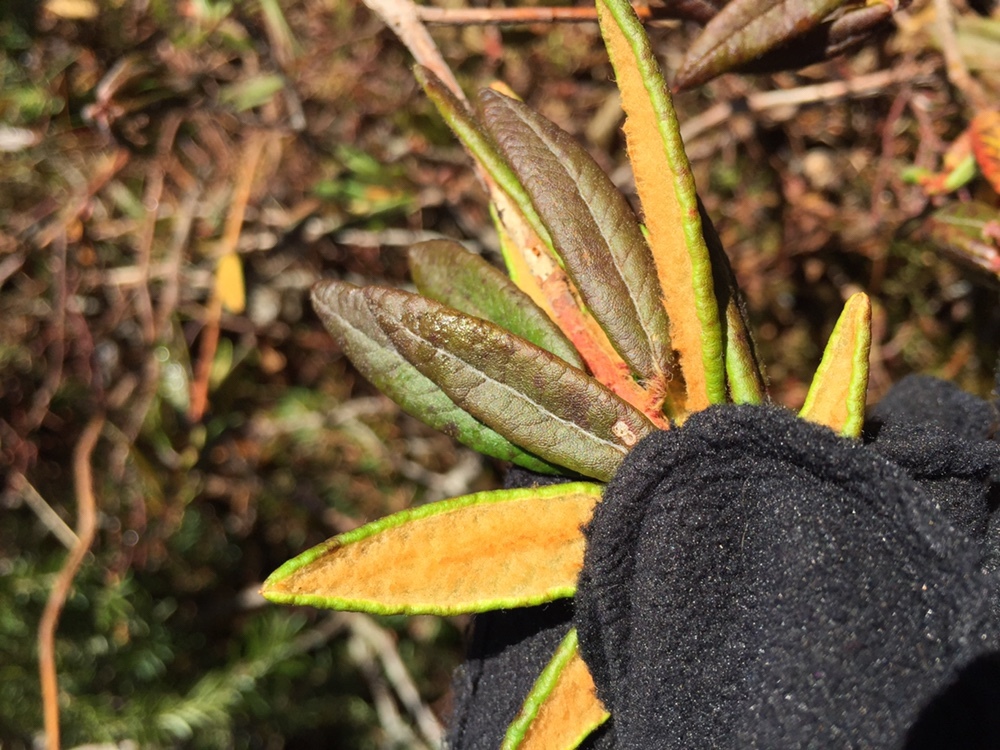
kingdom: Plantae
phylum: Tracheophyta
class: Magnoliopsida
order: Ericales
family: Ericaceae
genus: Rhododendron
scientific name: Rhododendron groenlandicum
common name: Bog labrador tea
